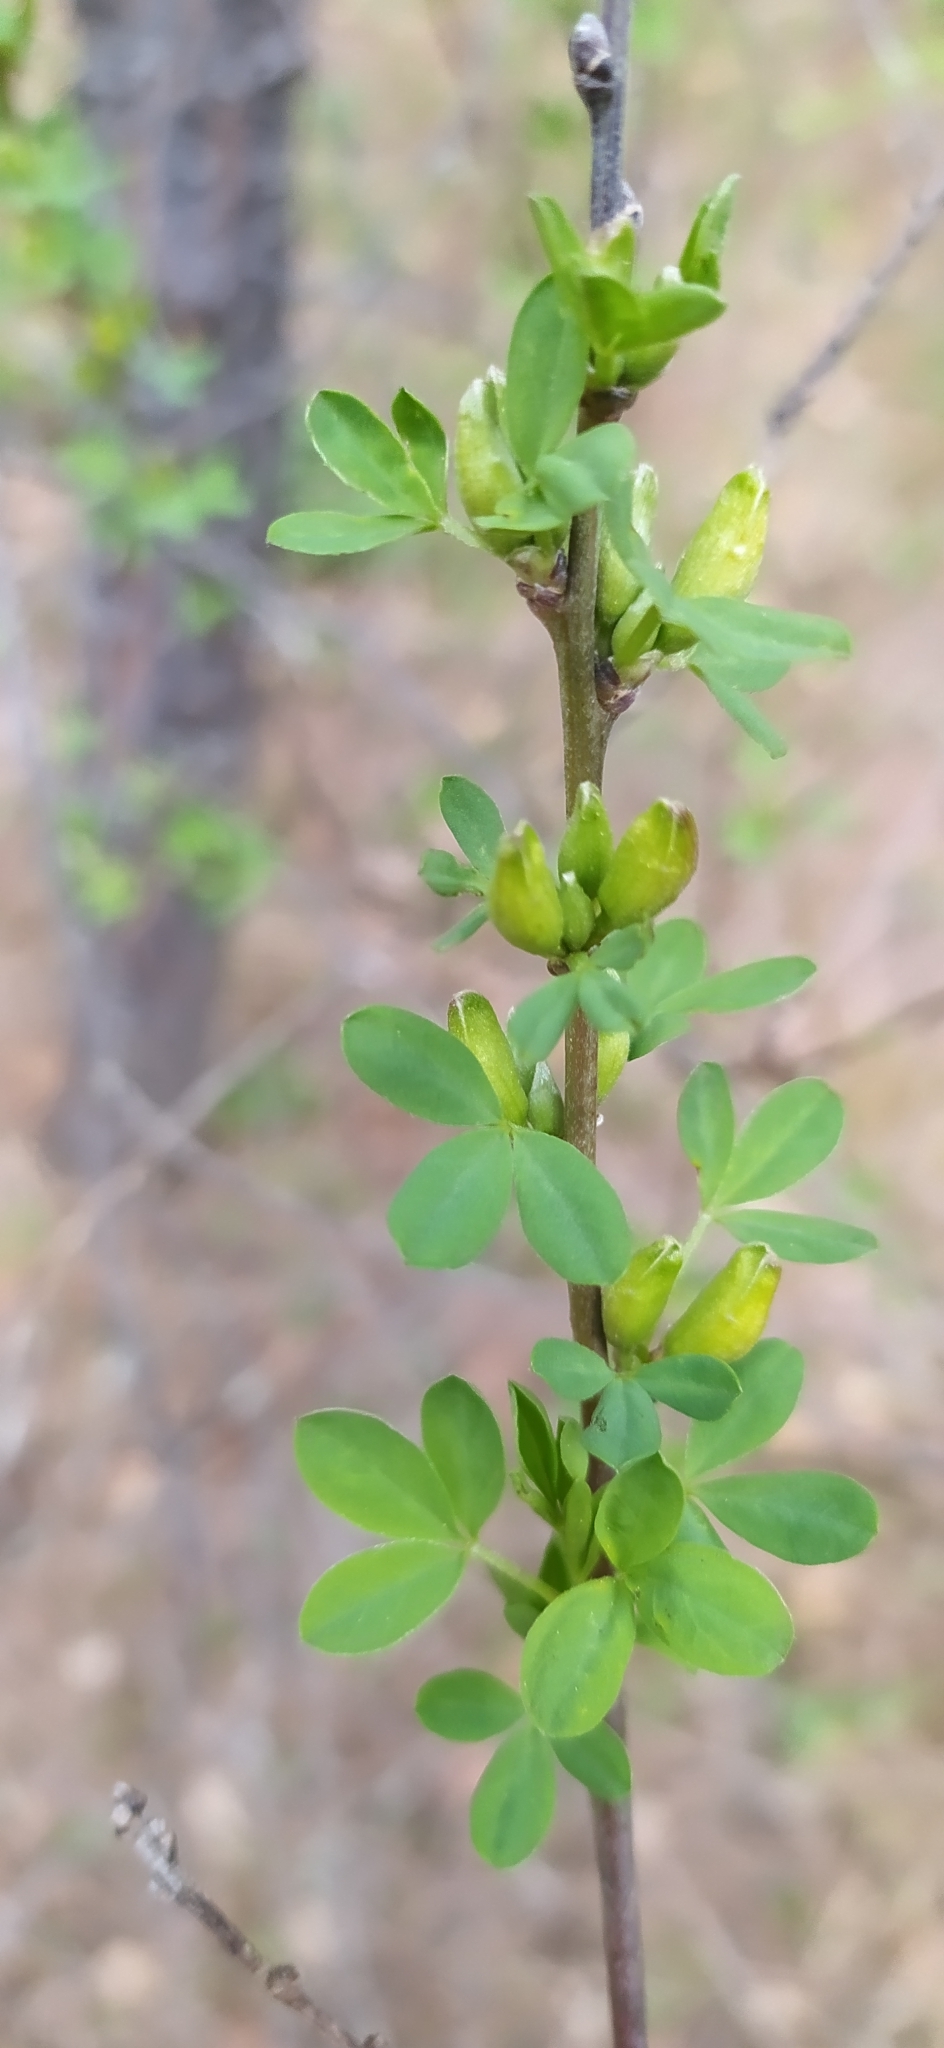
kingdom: Plantae
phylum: Tracheophyta
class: Magnoliopsida
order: Fabales
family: Fabaceae
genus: Chamaecytisus
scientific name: Chamaecytisus ruthenicus
